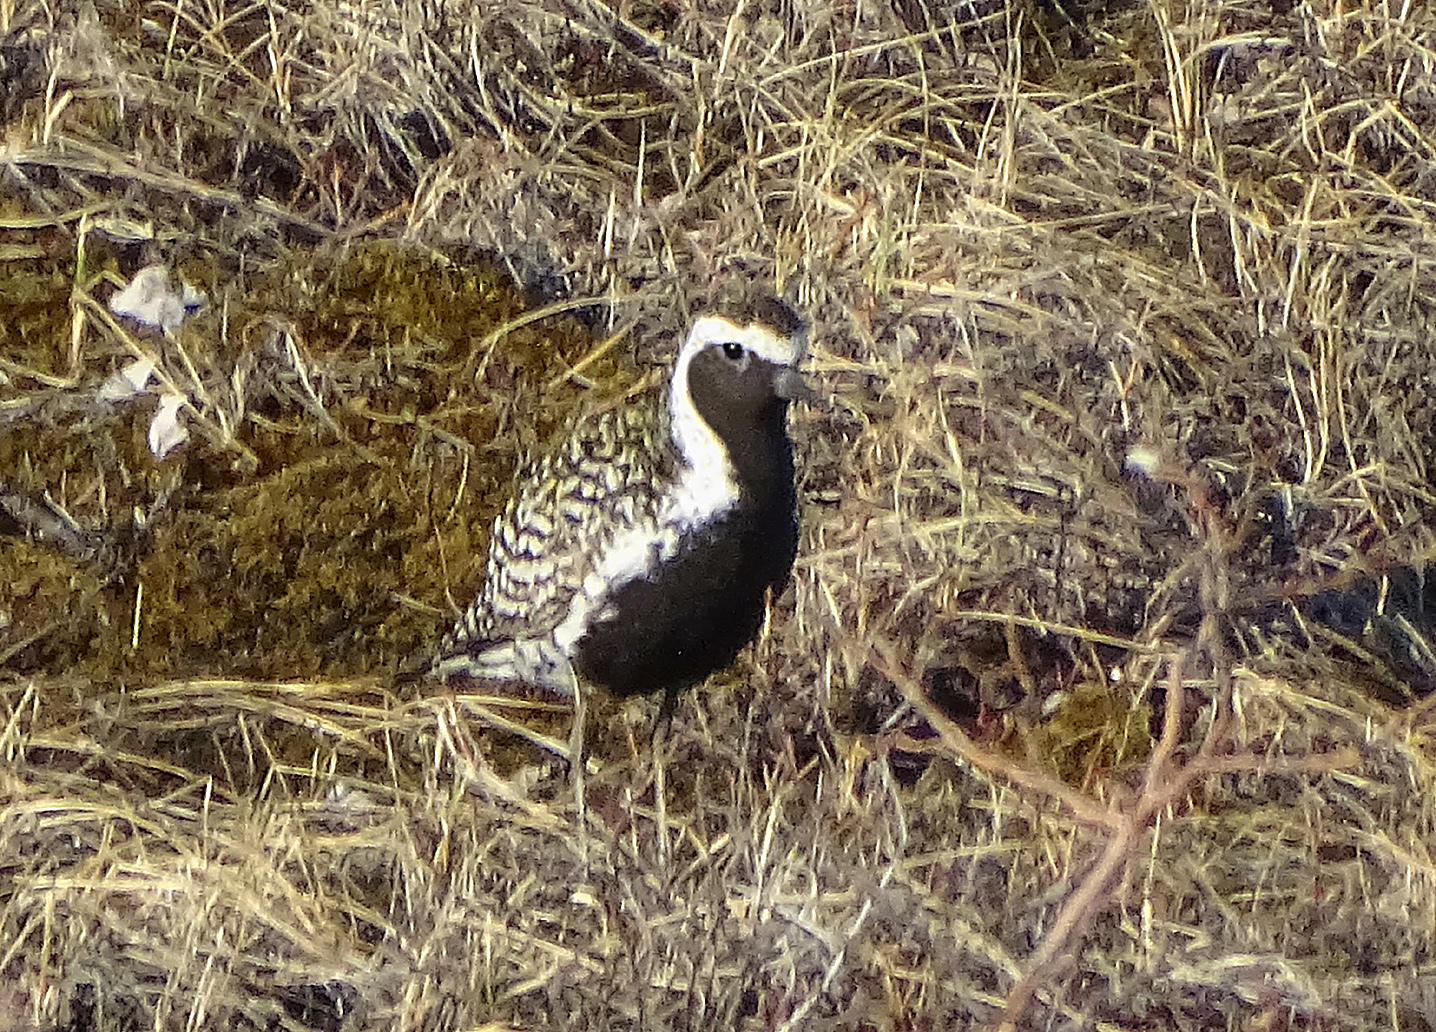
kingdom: Animalia
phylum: Chordata
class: Aves
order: Charadriiformes
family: Charadriidae
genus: Pluvialis
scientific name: Pluvialis fulva
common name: Pacific golden plover
